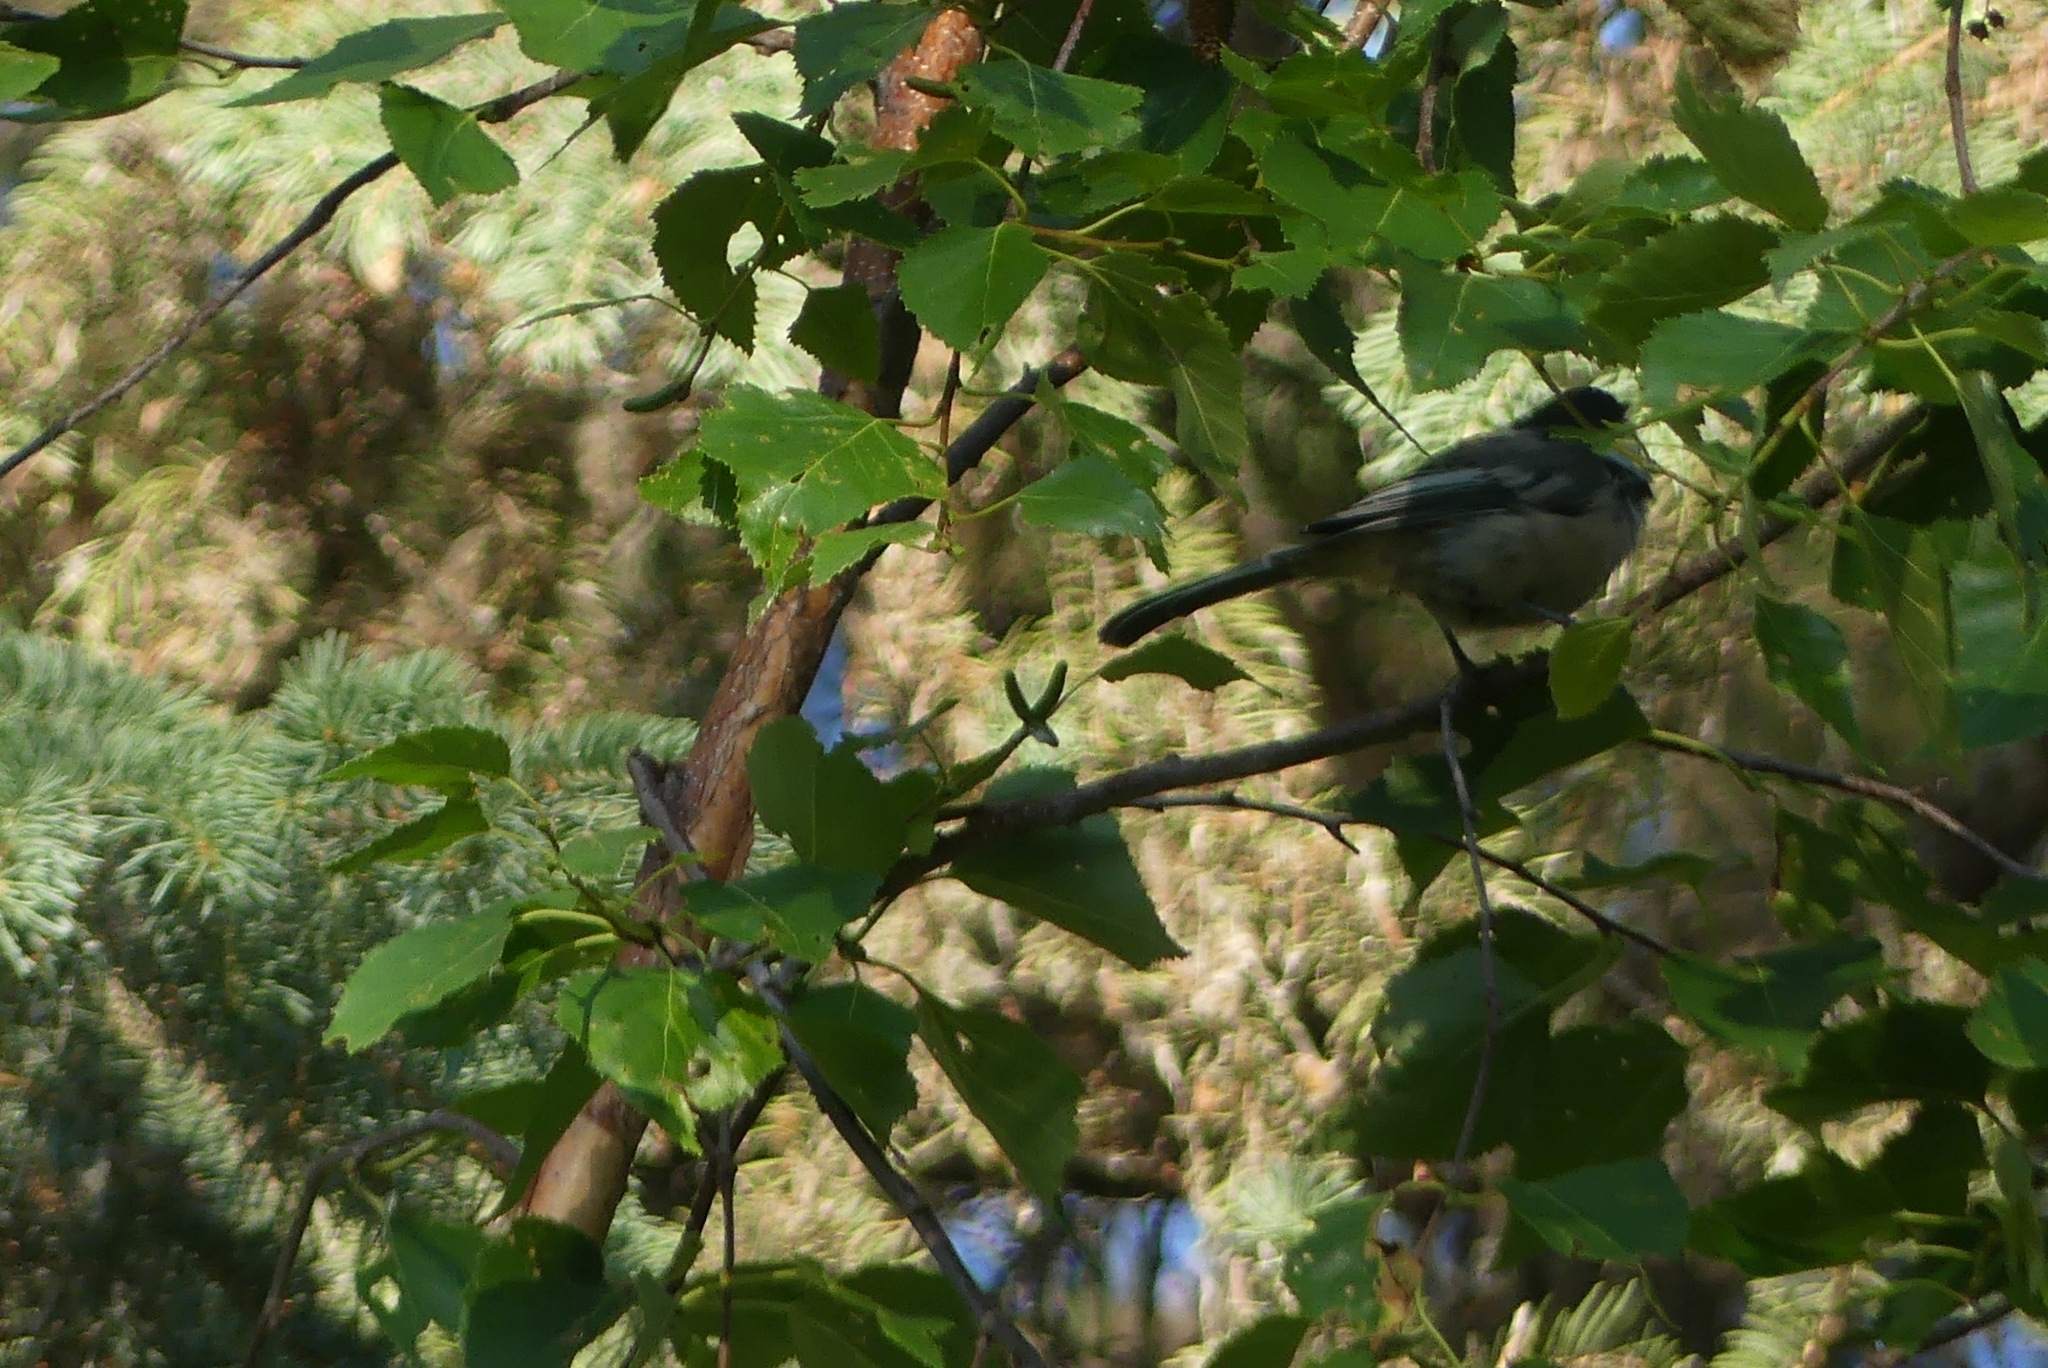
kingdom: Animalia
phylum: Chordata
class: Aves
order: Passeriformes
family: Paridae
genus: Poecile
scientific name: Poecile atricapillus
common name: Black-capped chickadee
